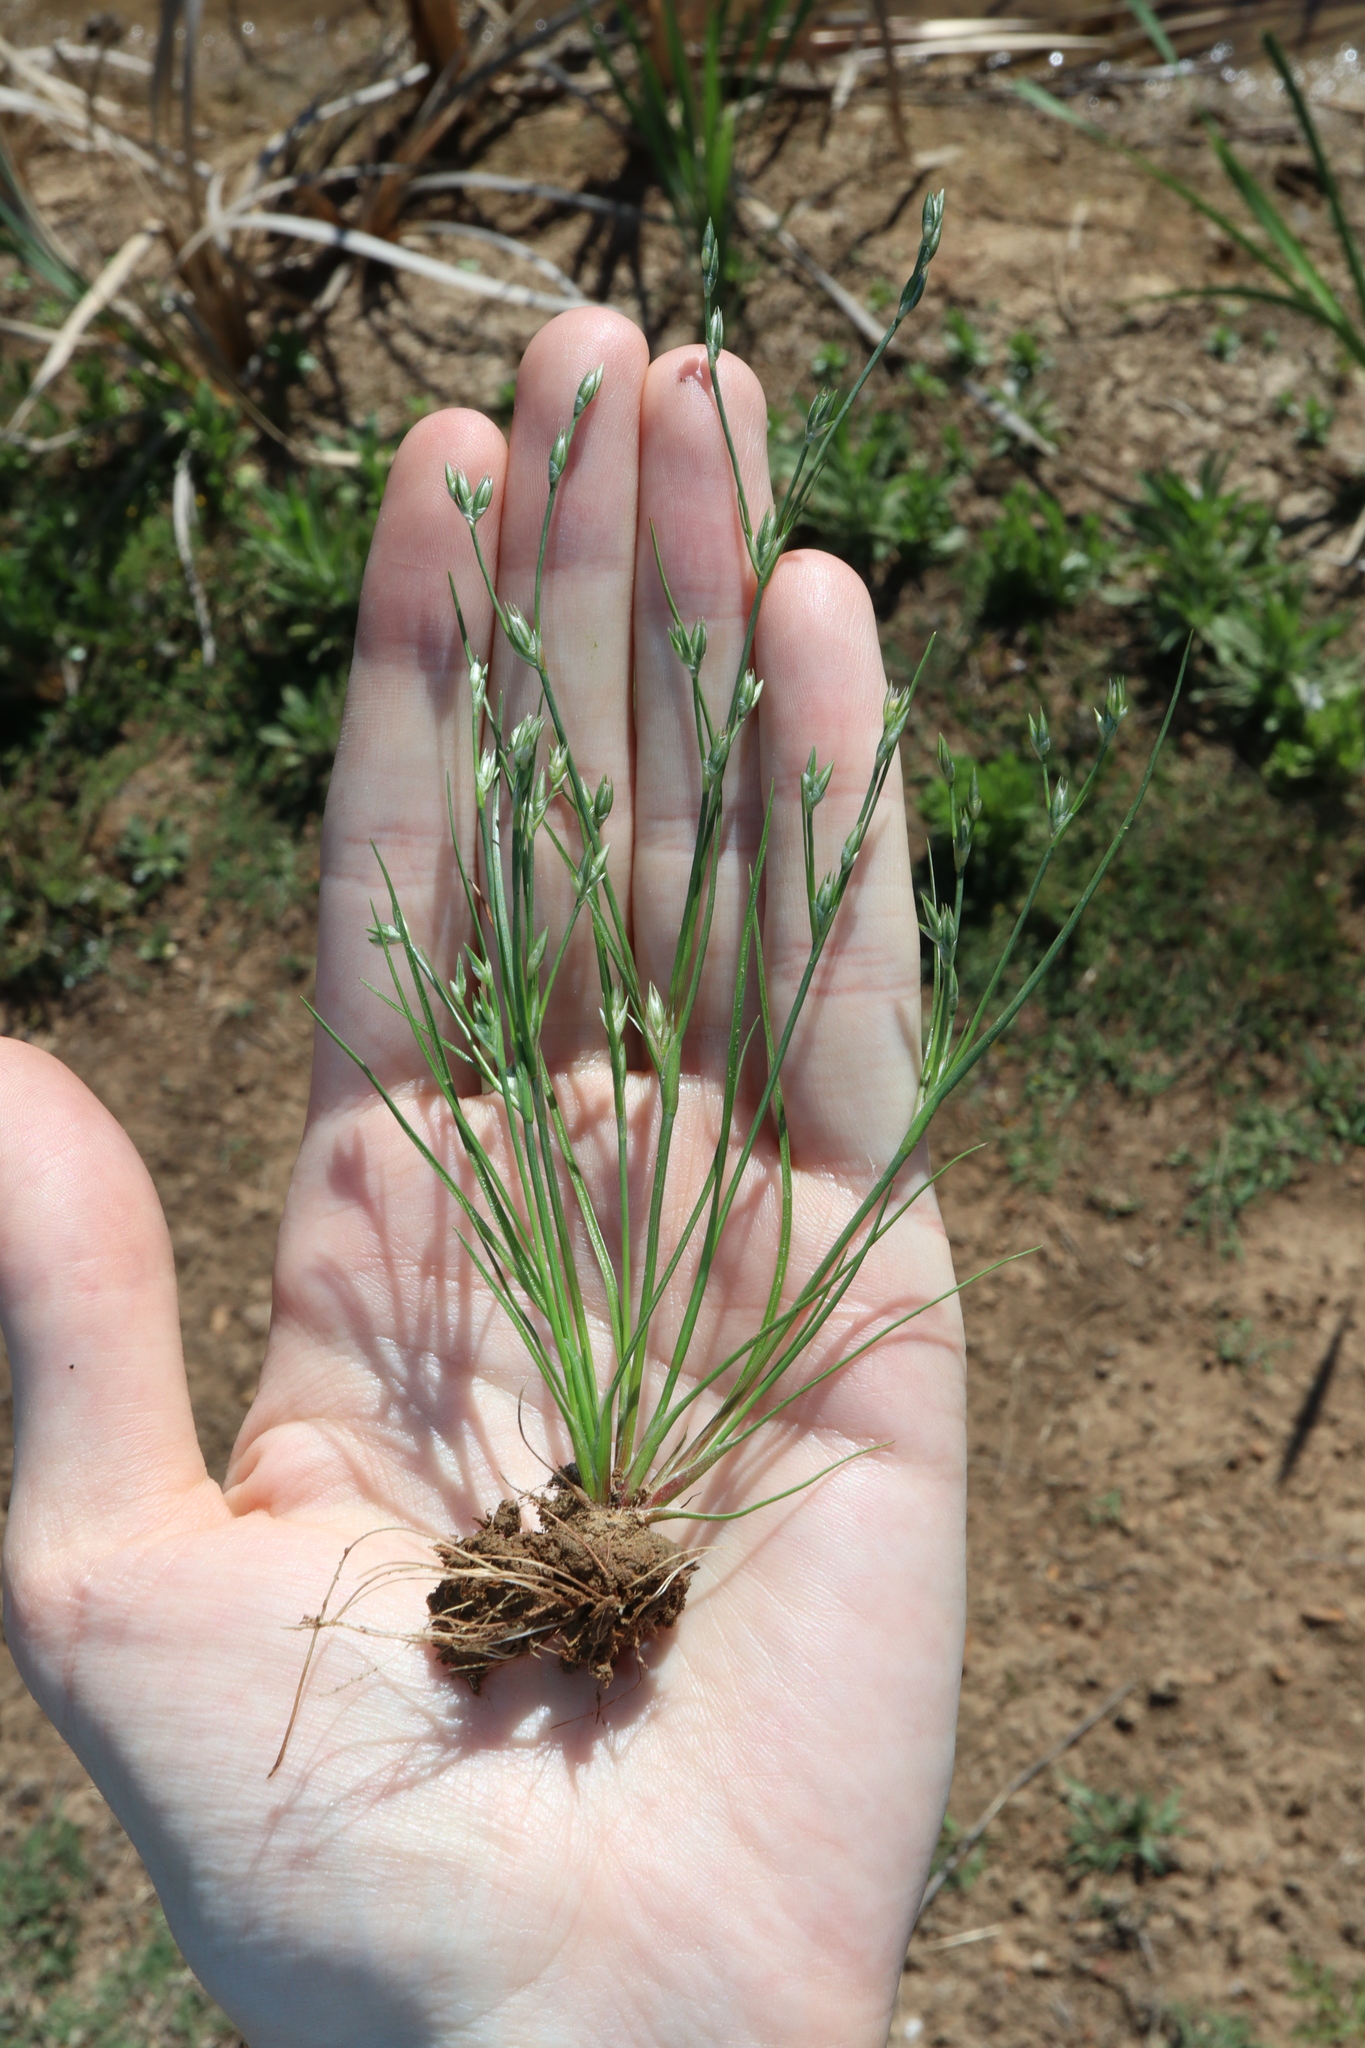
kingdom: Plantae
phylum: Tracheophyta
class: Liliopsida
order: Poales
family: Juncaceae
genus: Juncus
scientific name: Juncus bufonius
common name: Toad rush
